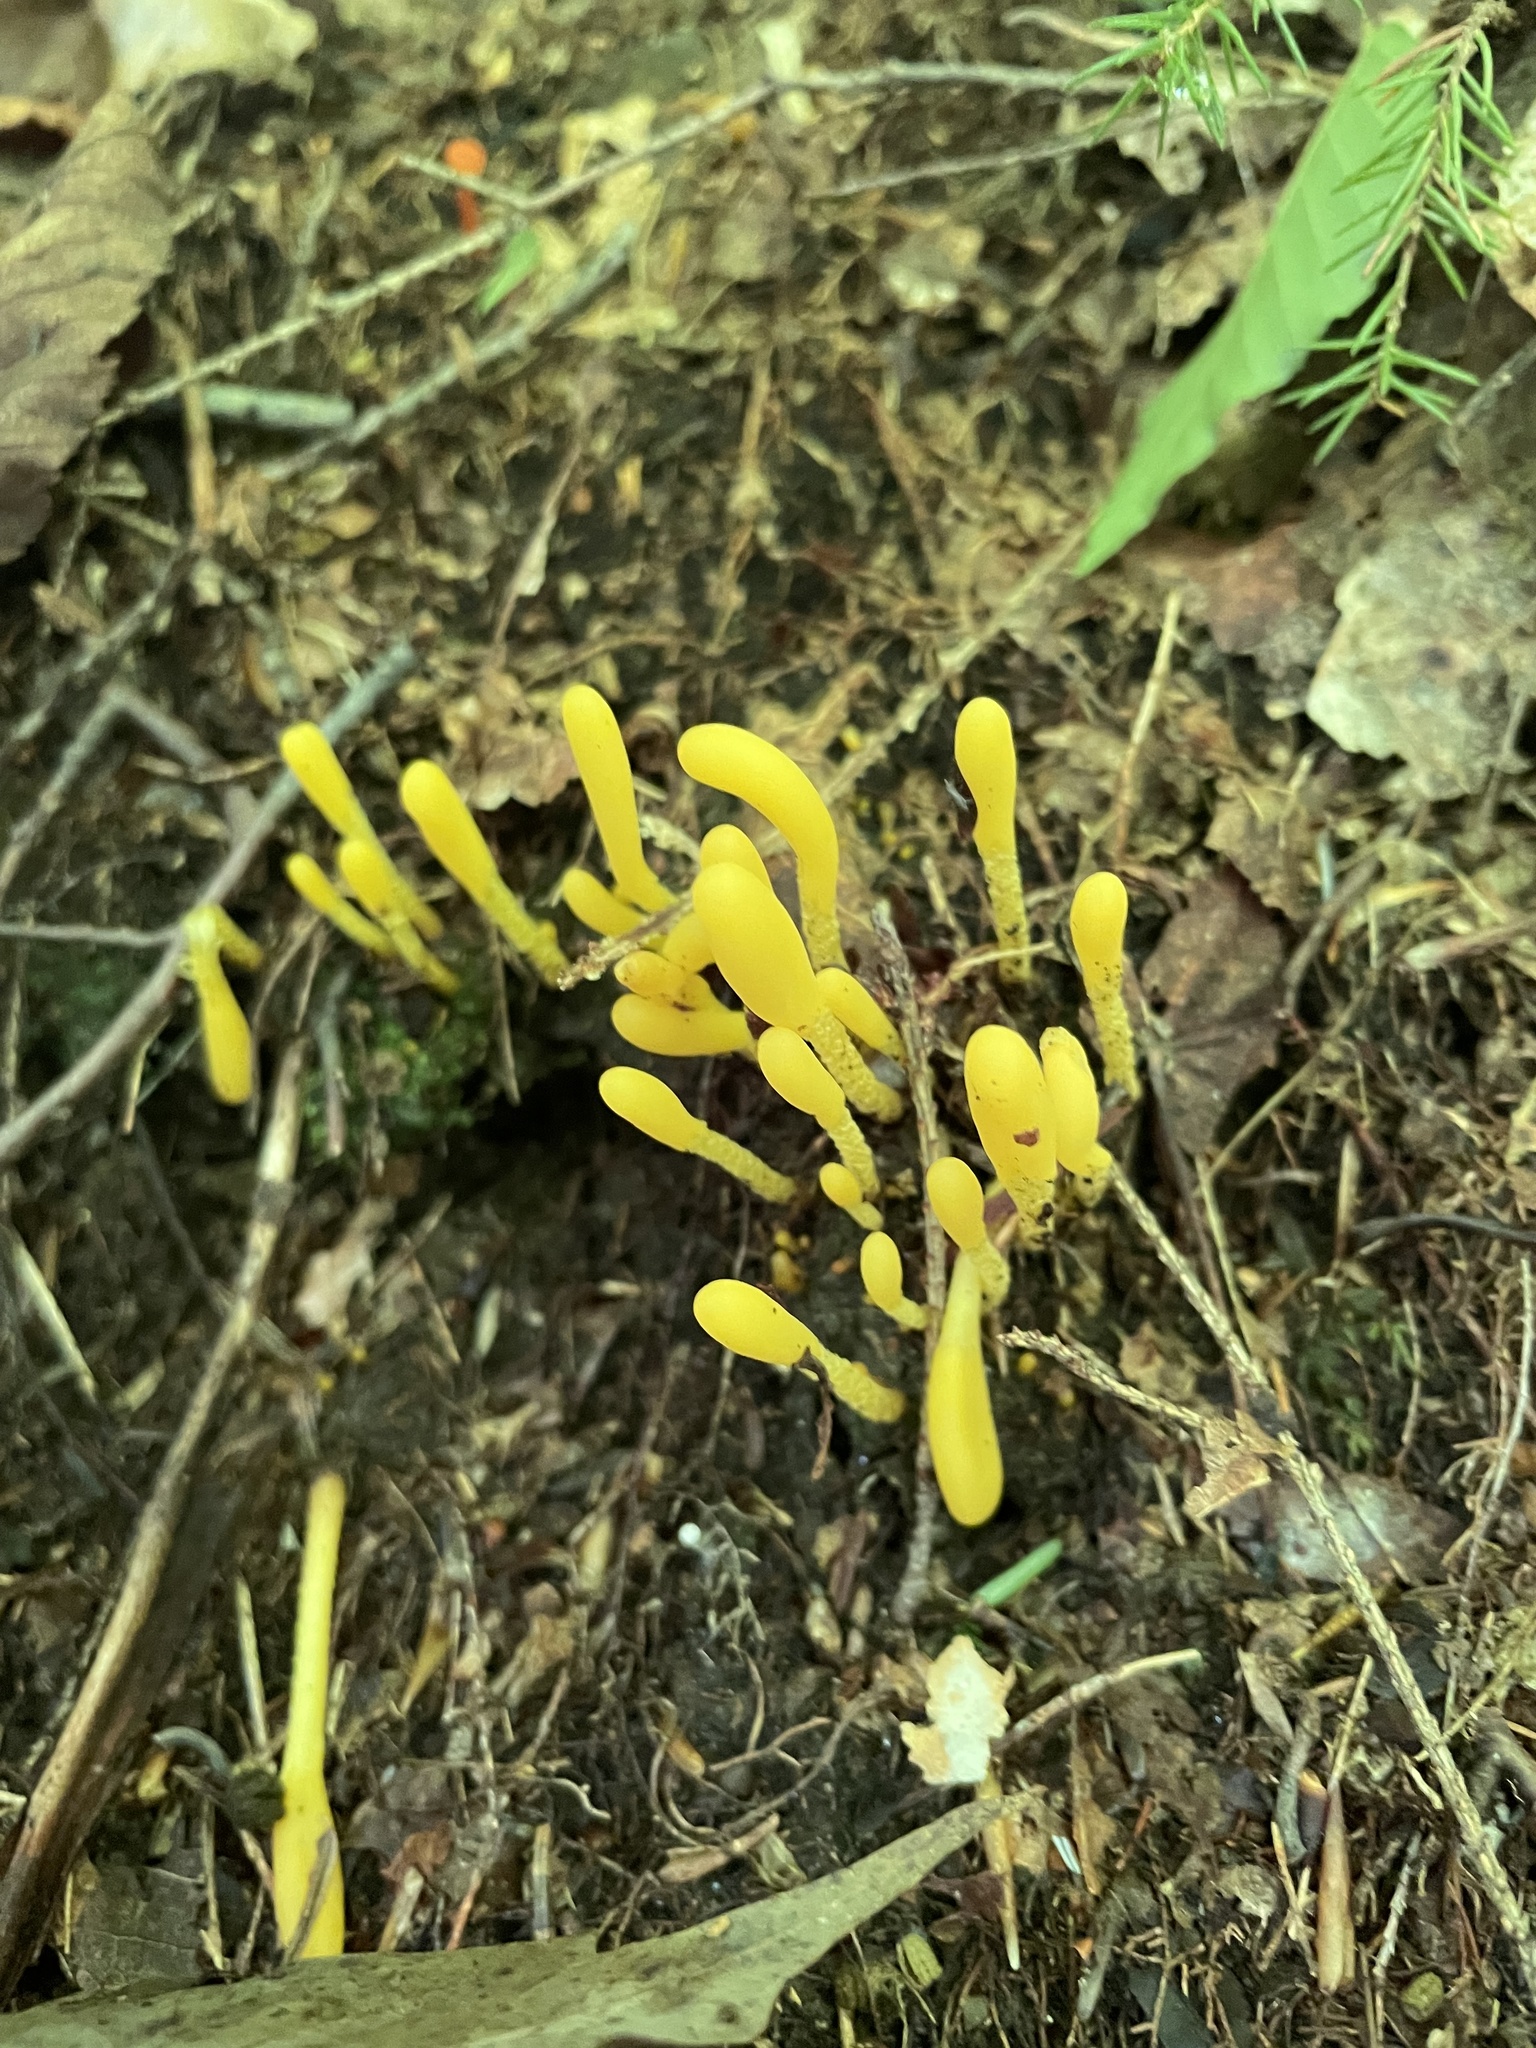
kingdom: Fungi
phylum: Ascomycota
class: Leotiomycetes
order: Leotiales
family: Leotiaceae
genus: Microglossum
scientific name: Microglossum rufum
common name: Orange earthtongue
